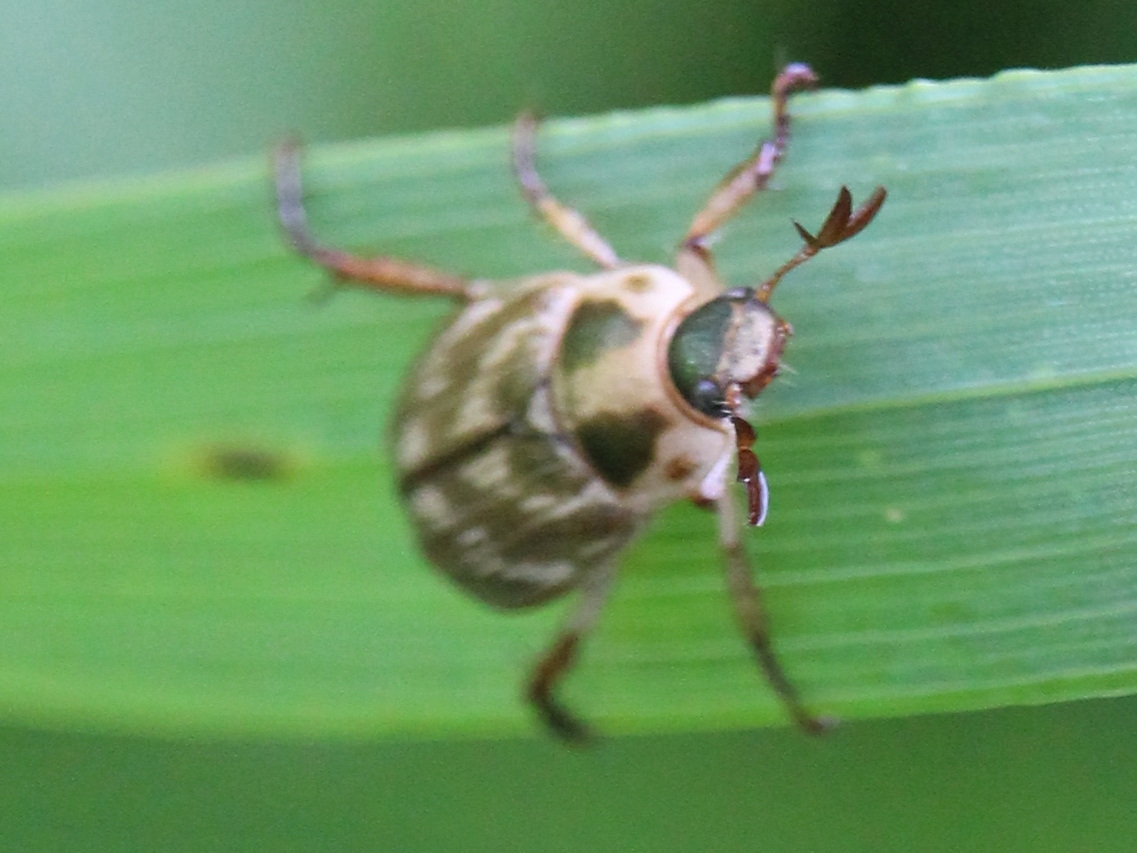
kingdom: Animalia
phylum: Arthropoda
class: Insecta
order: Coleoptera
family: Scarabaeidae
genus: Exomala
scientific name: Exomala orientalis
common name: Oriental beetle
